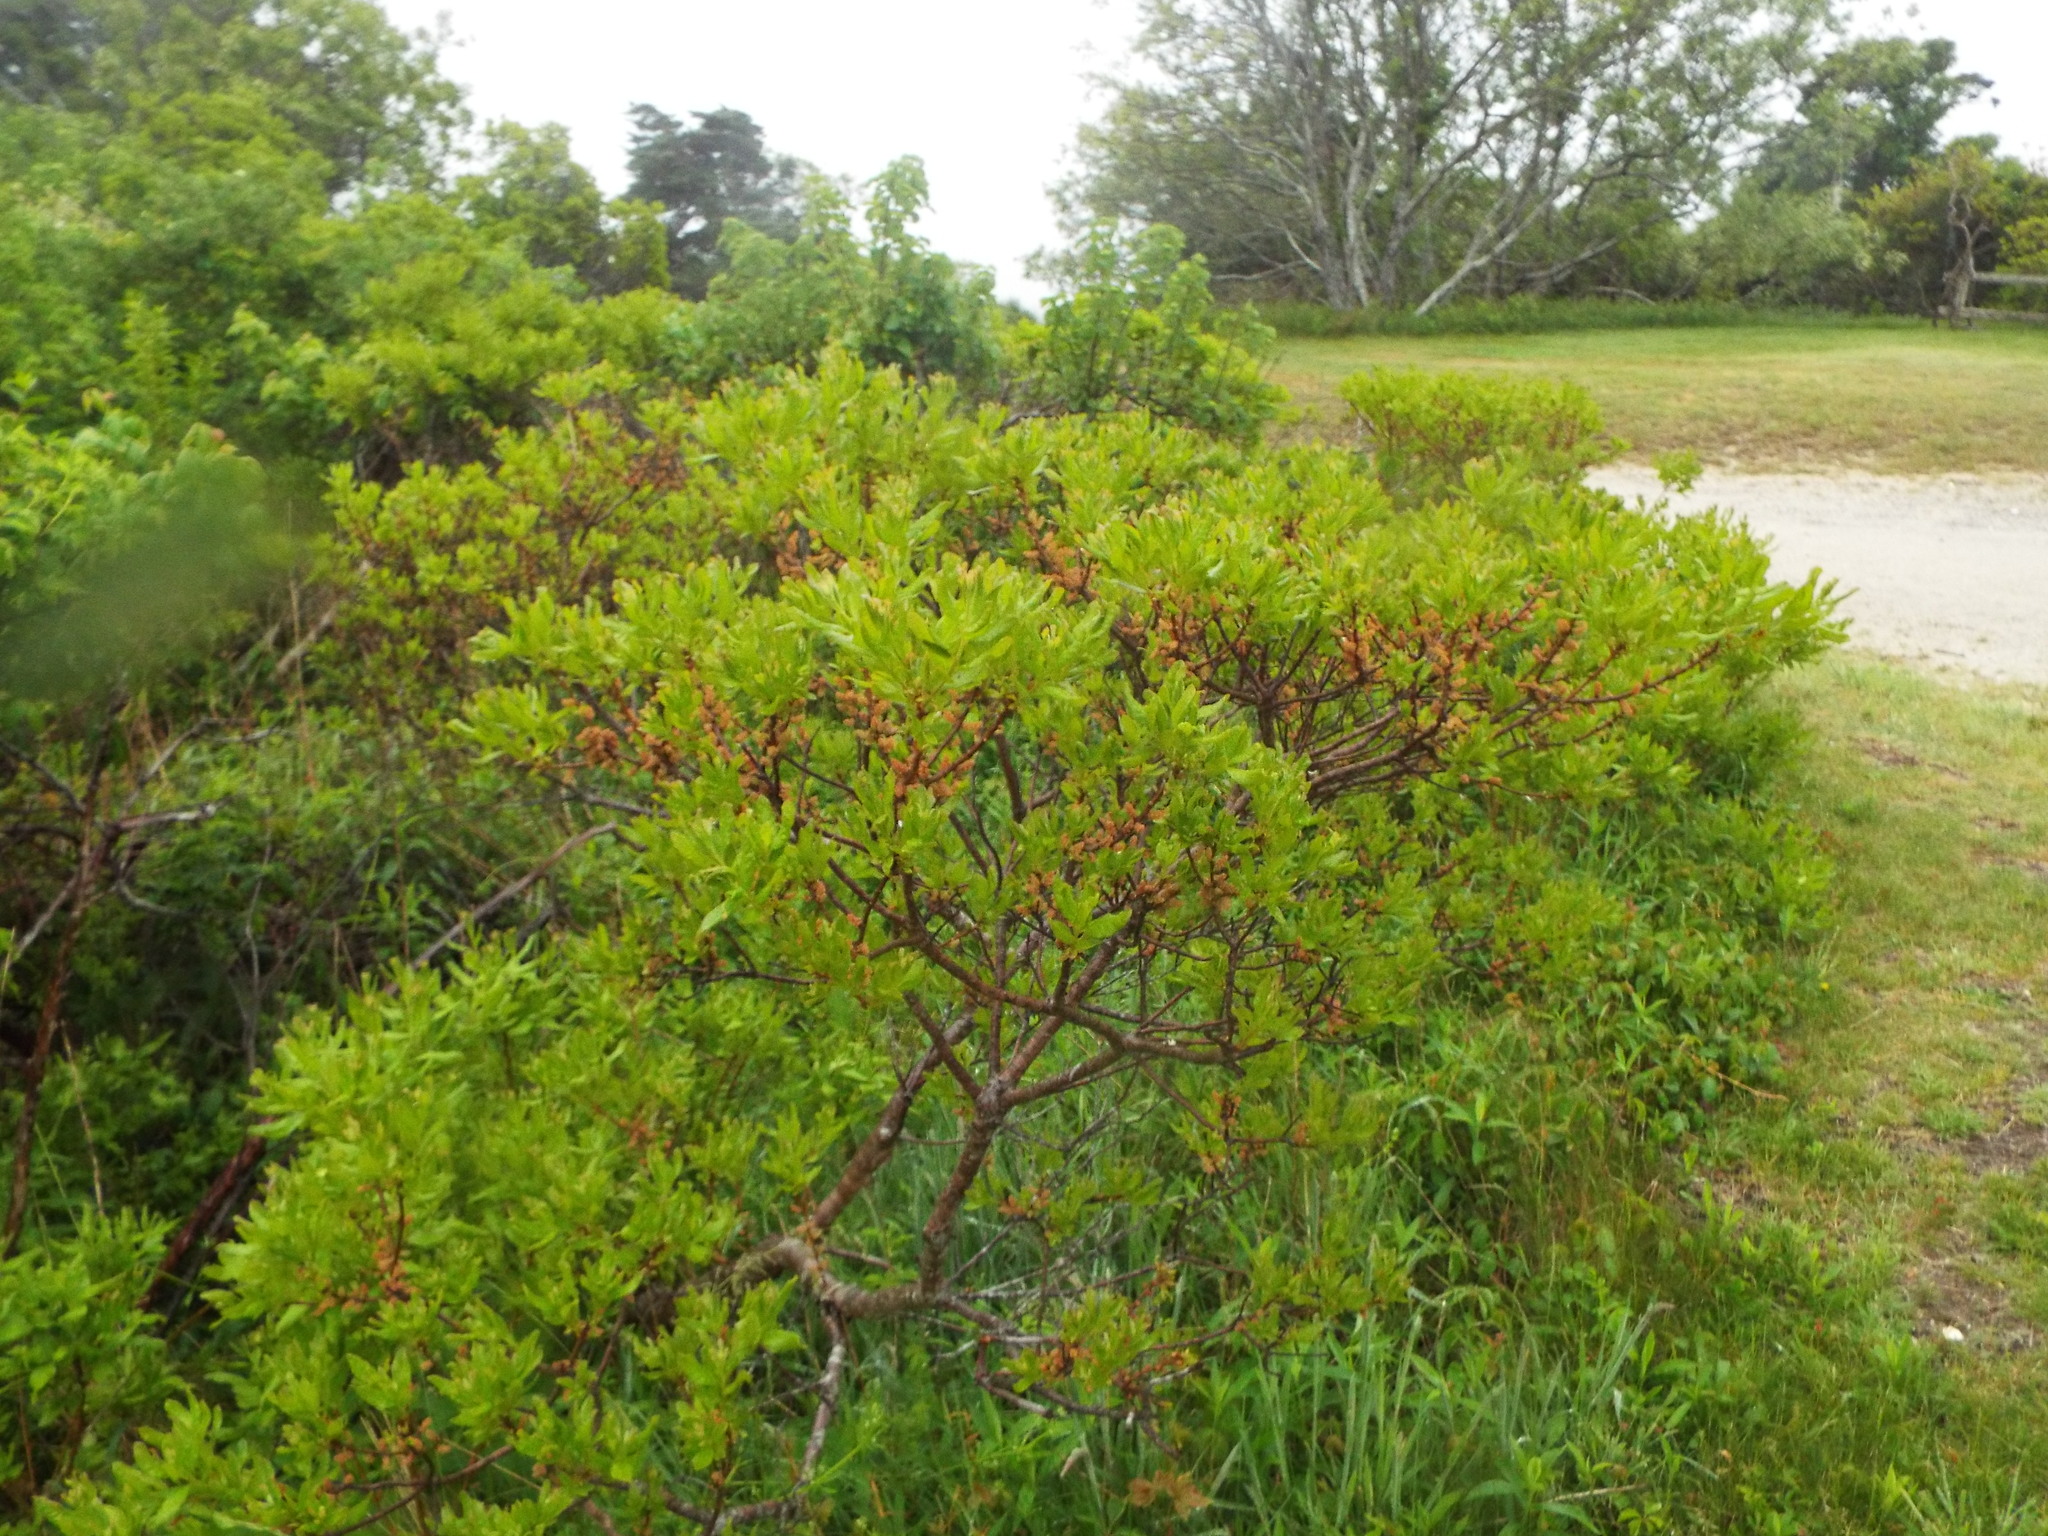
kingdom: Plantae
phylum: Tracheophyta
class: Magnoliopsida
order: Fagales
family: Myricaceae
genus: Morella
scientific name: Morella pensylvanica
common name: Northern bayberry
